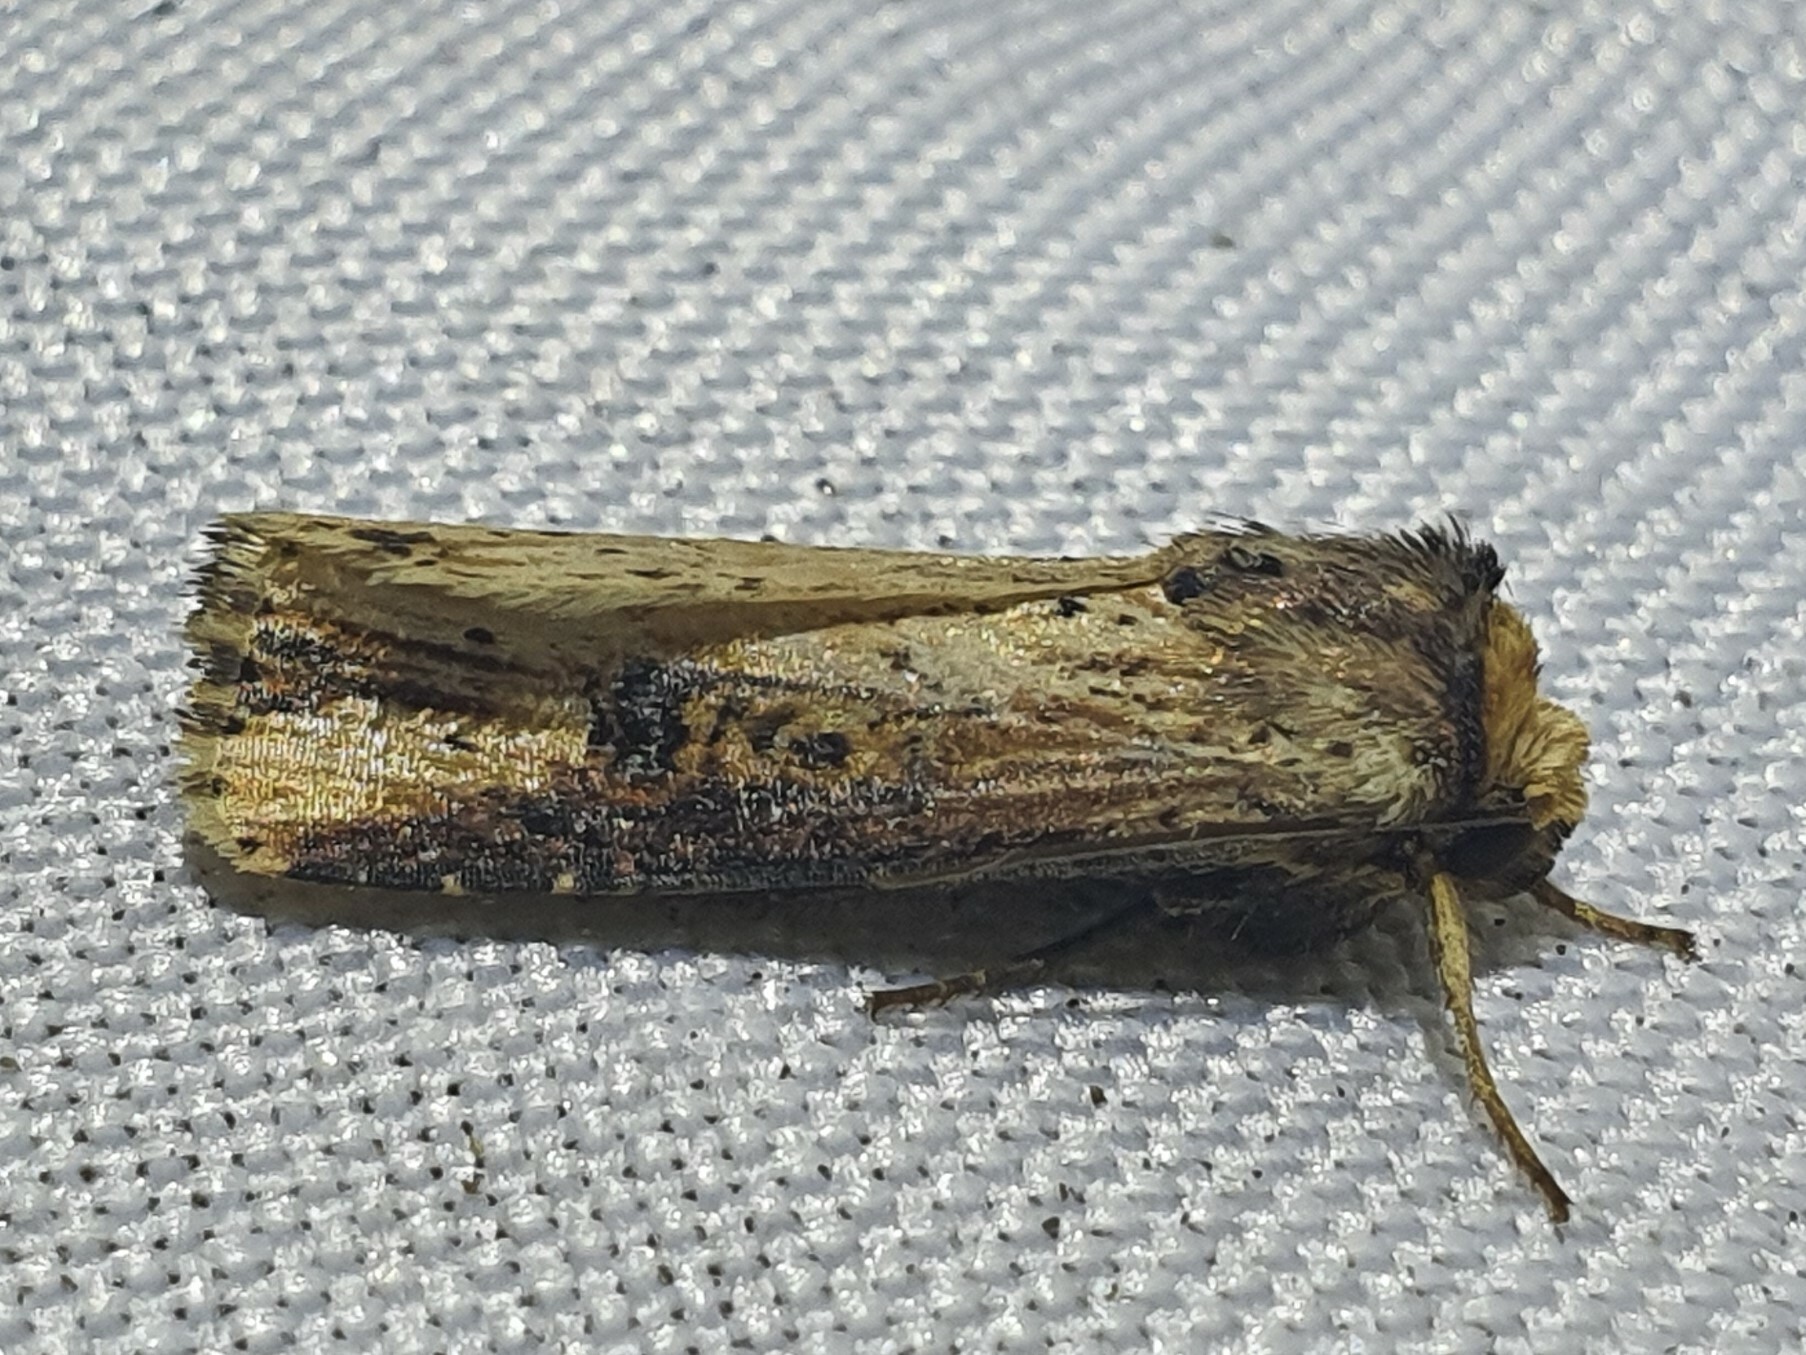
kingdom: Animalia
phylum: Arthropoda
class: Insecta
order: Lepidoptera
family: Noctuidae
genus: Axylia
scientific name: Axylia putris
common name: Flame
